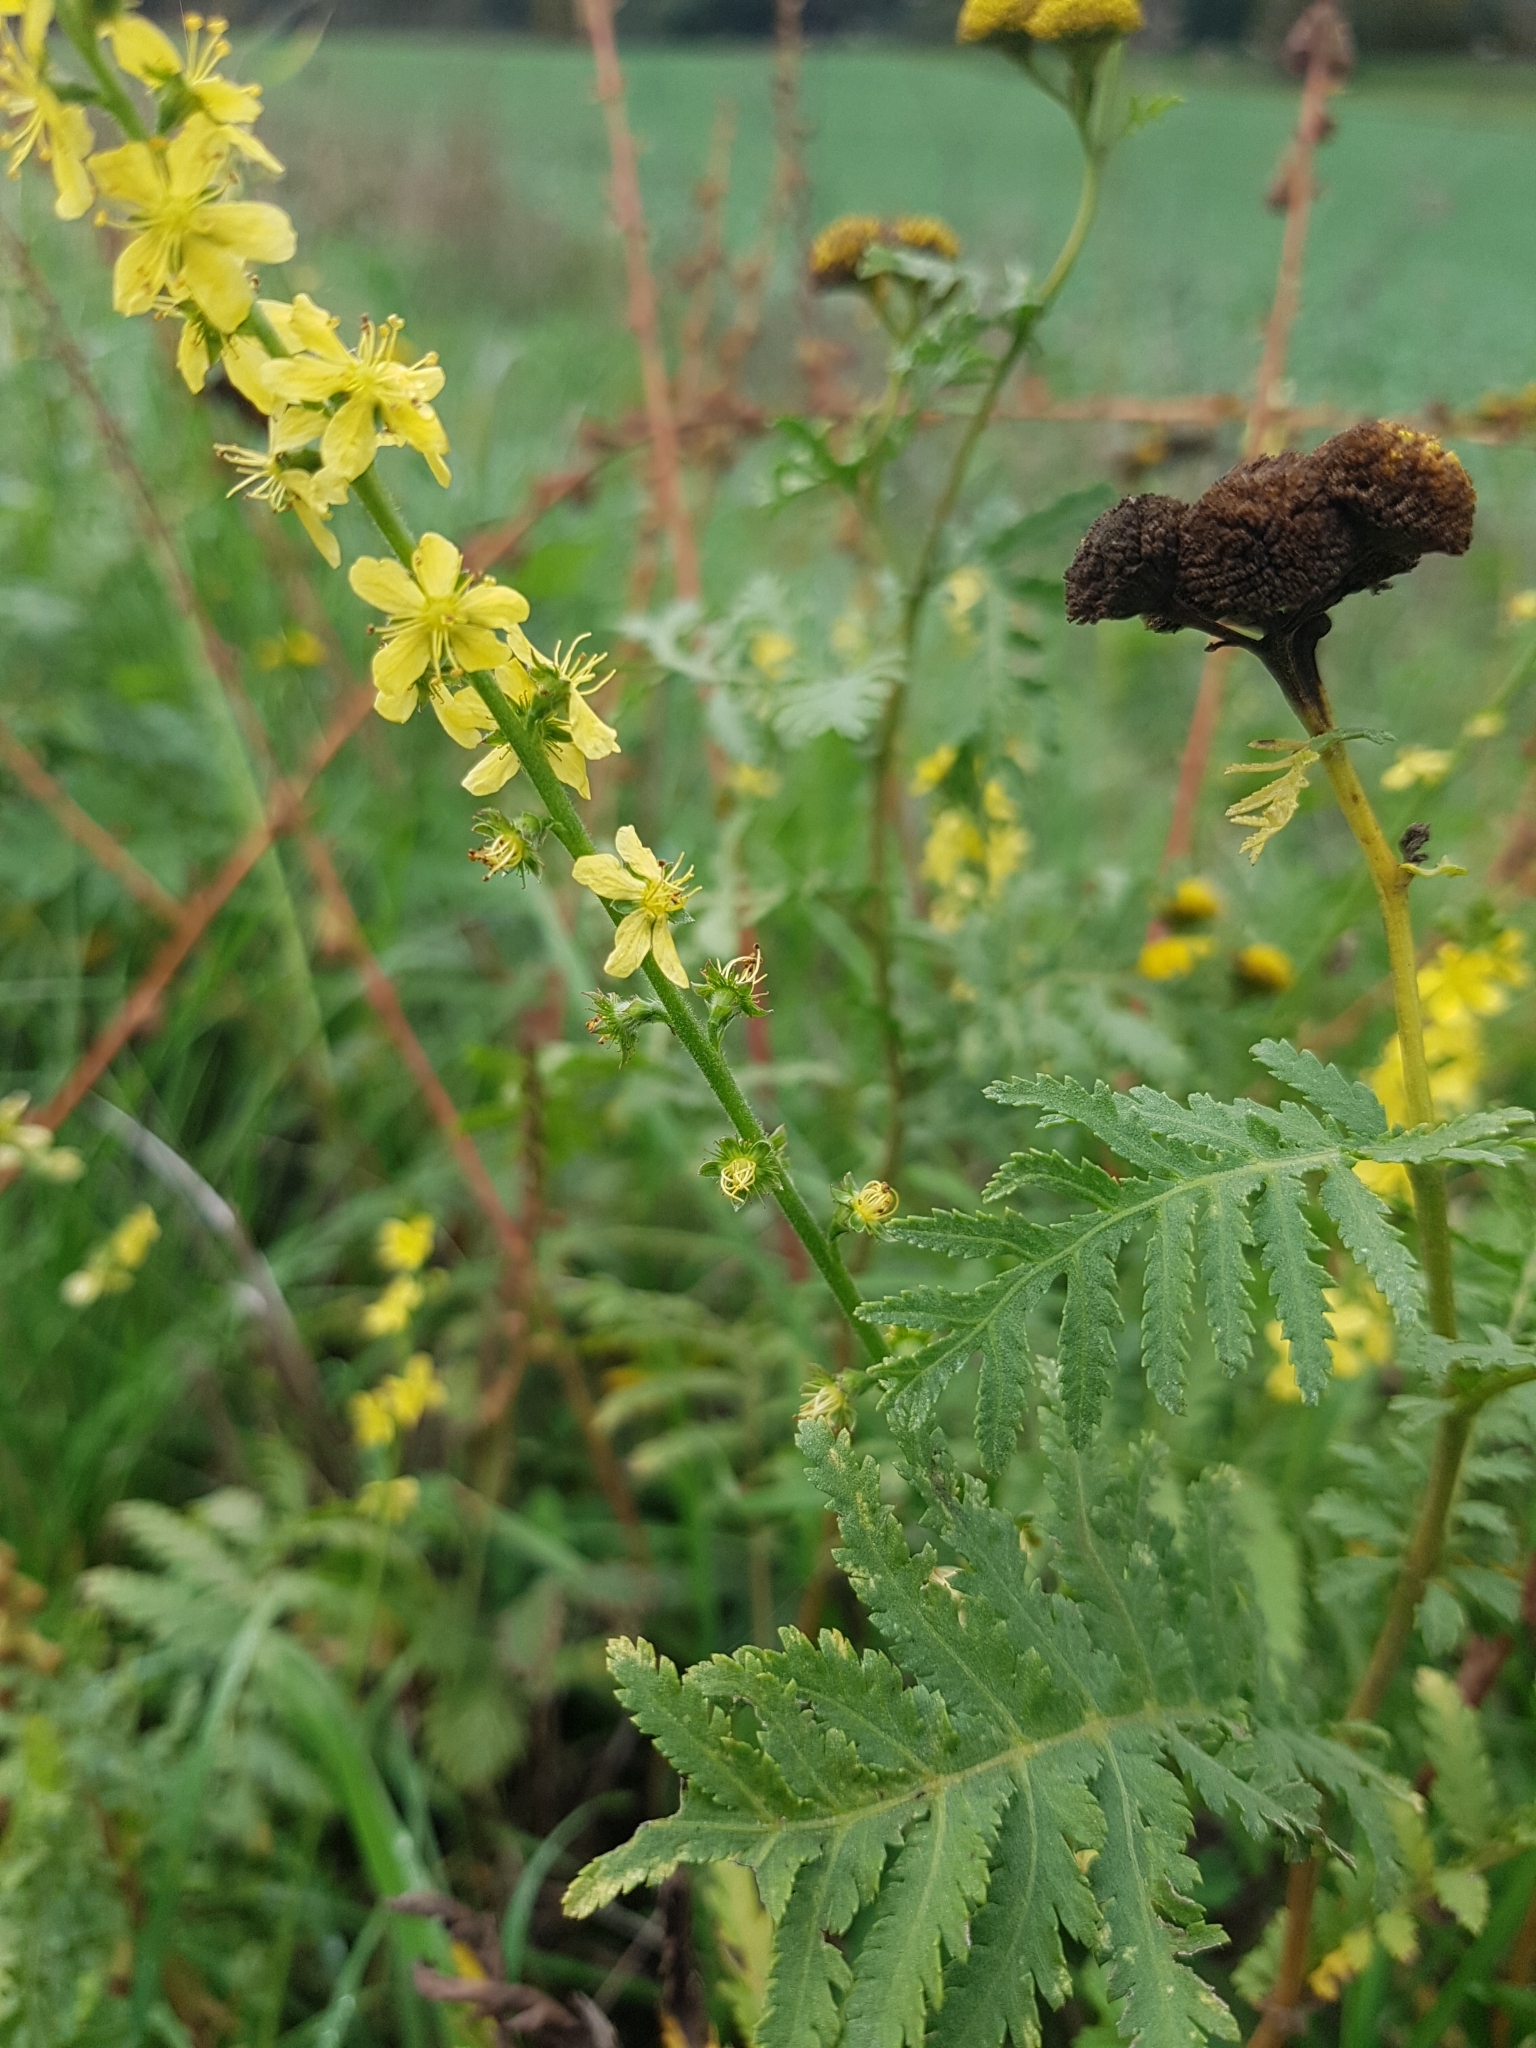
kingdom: Plantae
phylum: Tracheophyta
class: Magnoliopsida
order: Rosales
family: Rosaceae
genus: Agrimonia
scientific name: Agrimonia eupatoria
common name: Agrimony
